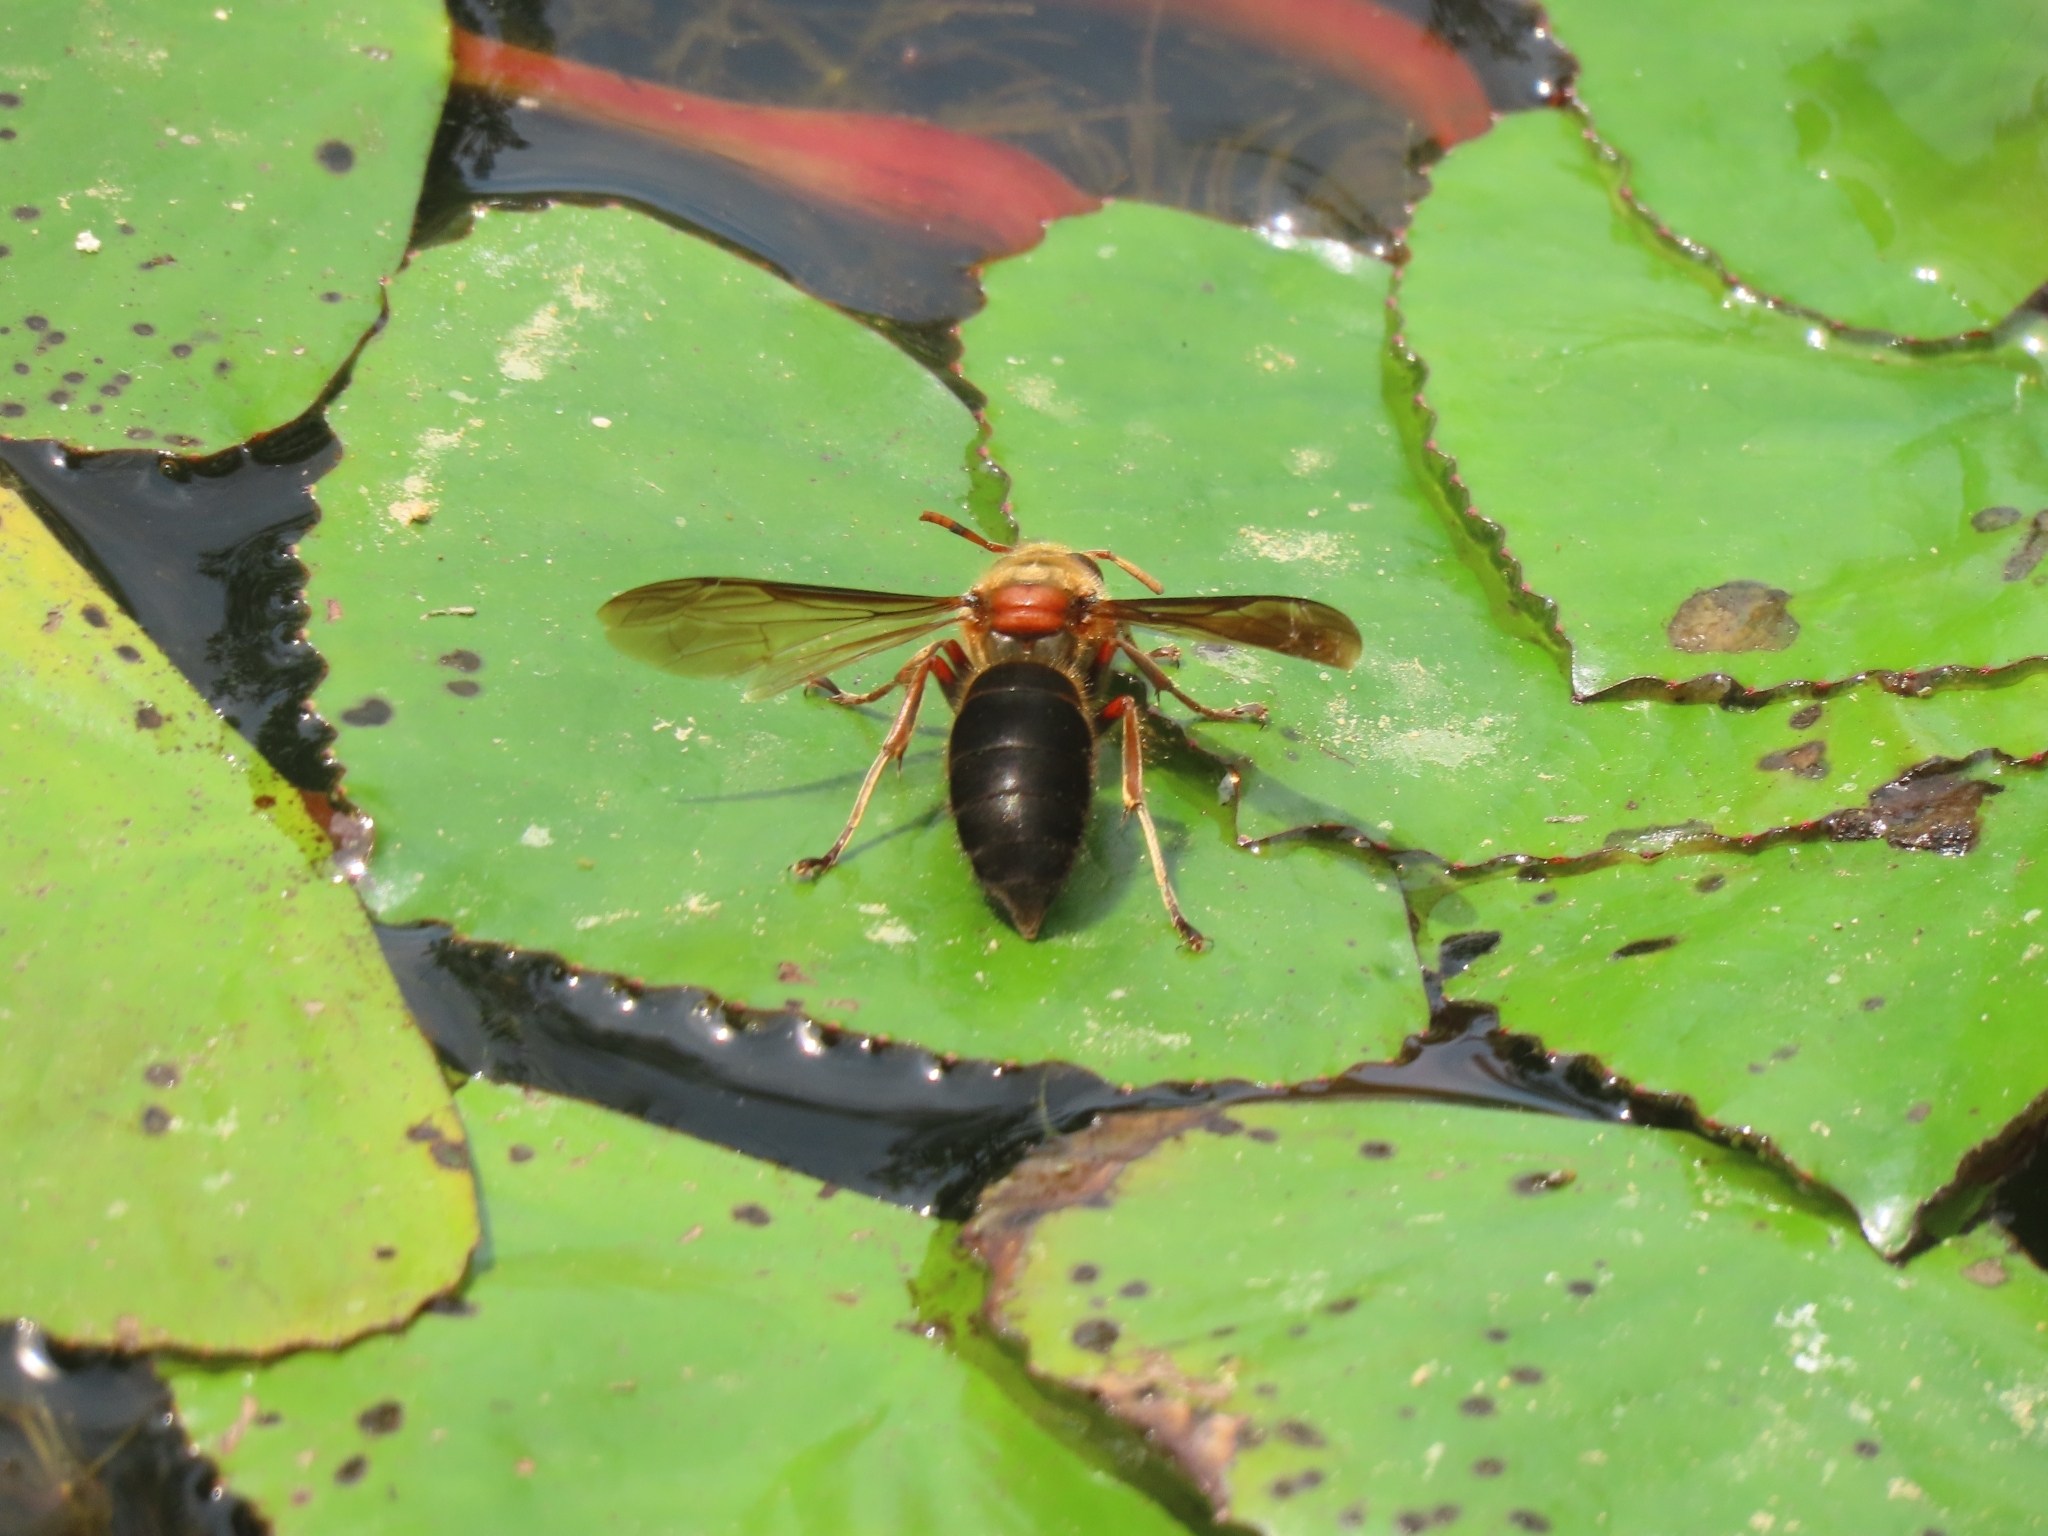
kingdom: Animalia
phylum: Arthropoda
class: Insecta
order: Hymenoptera
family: Vespidae
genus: Vespa
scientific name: Vespa basalis
